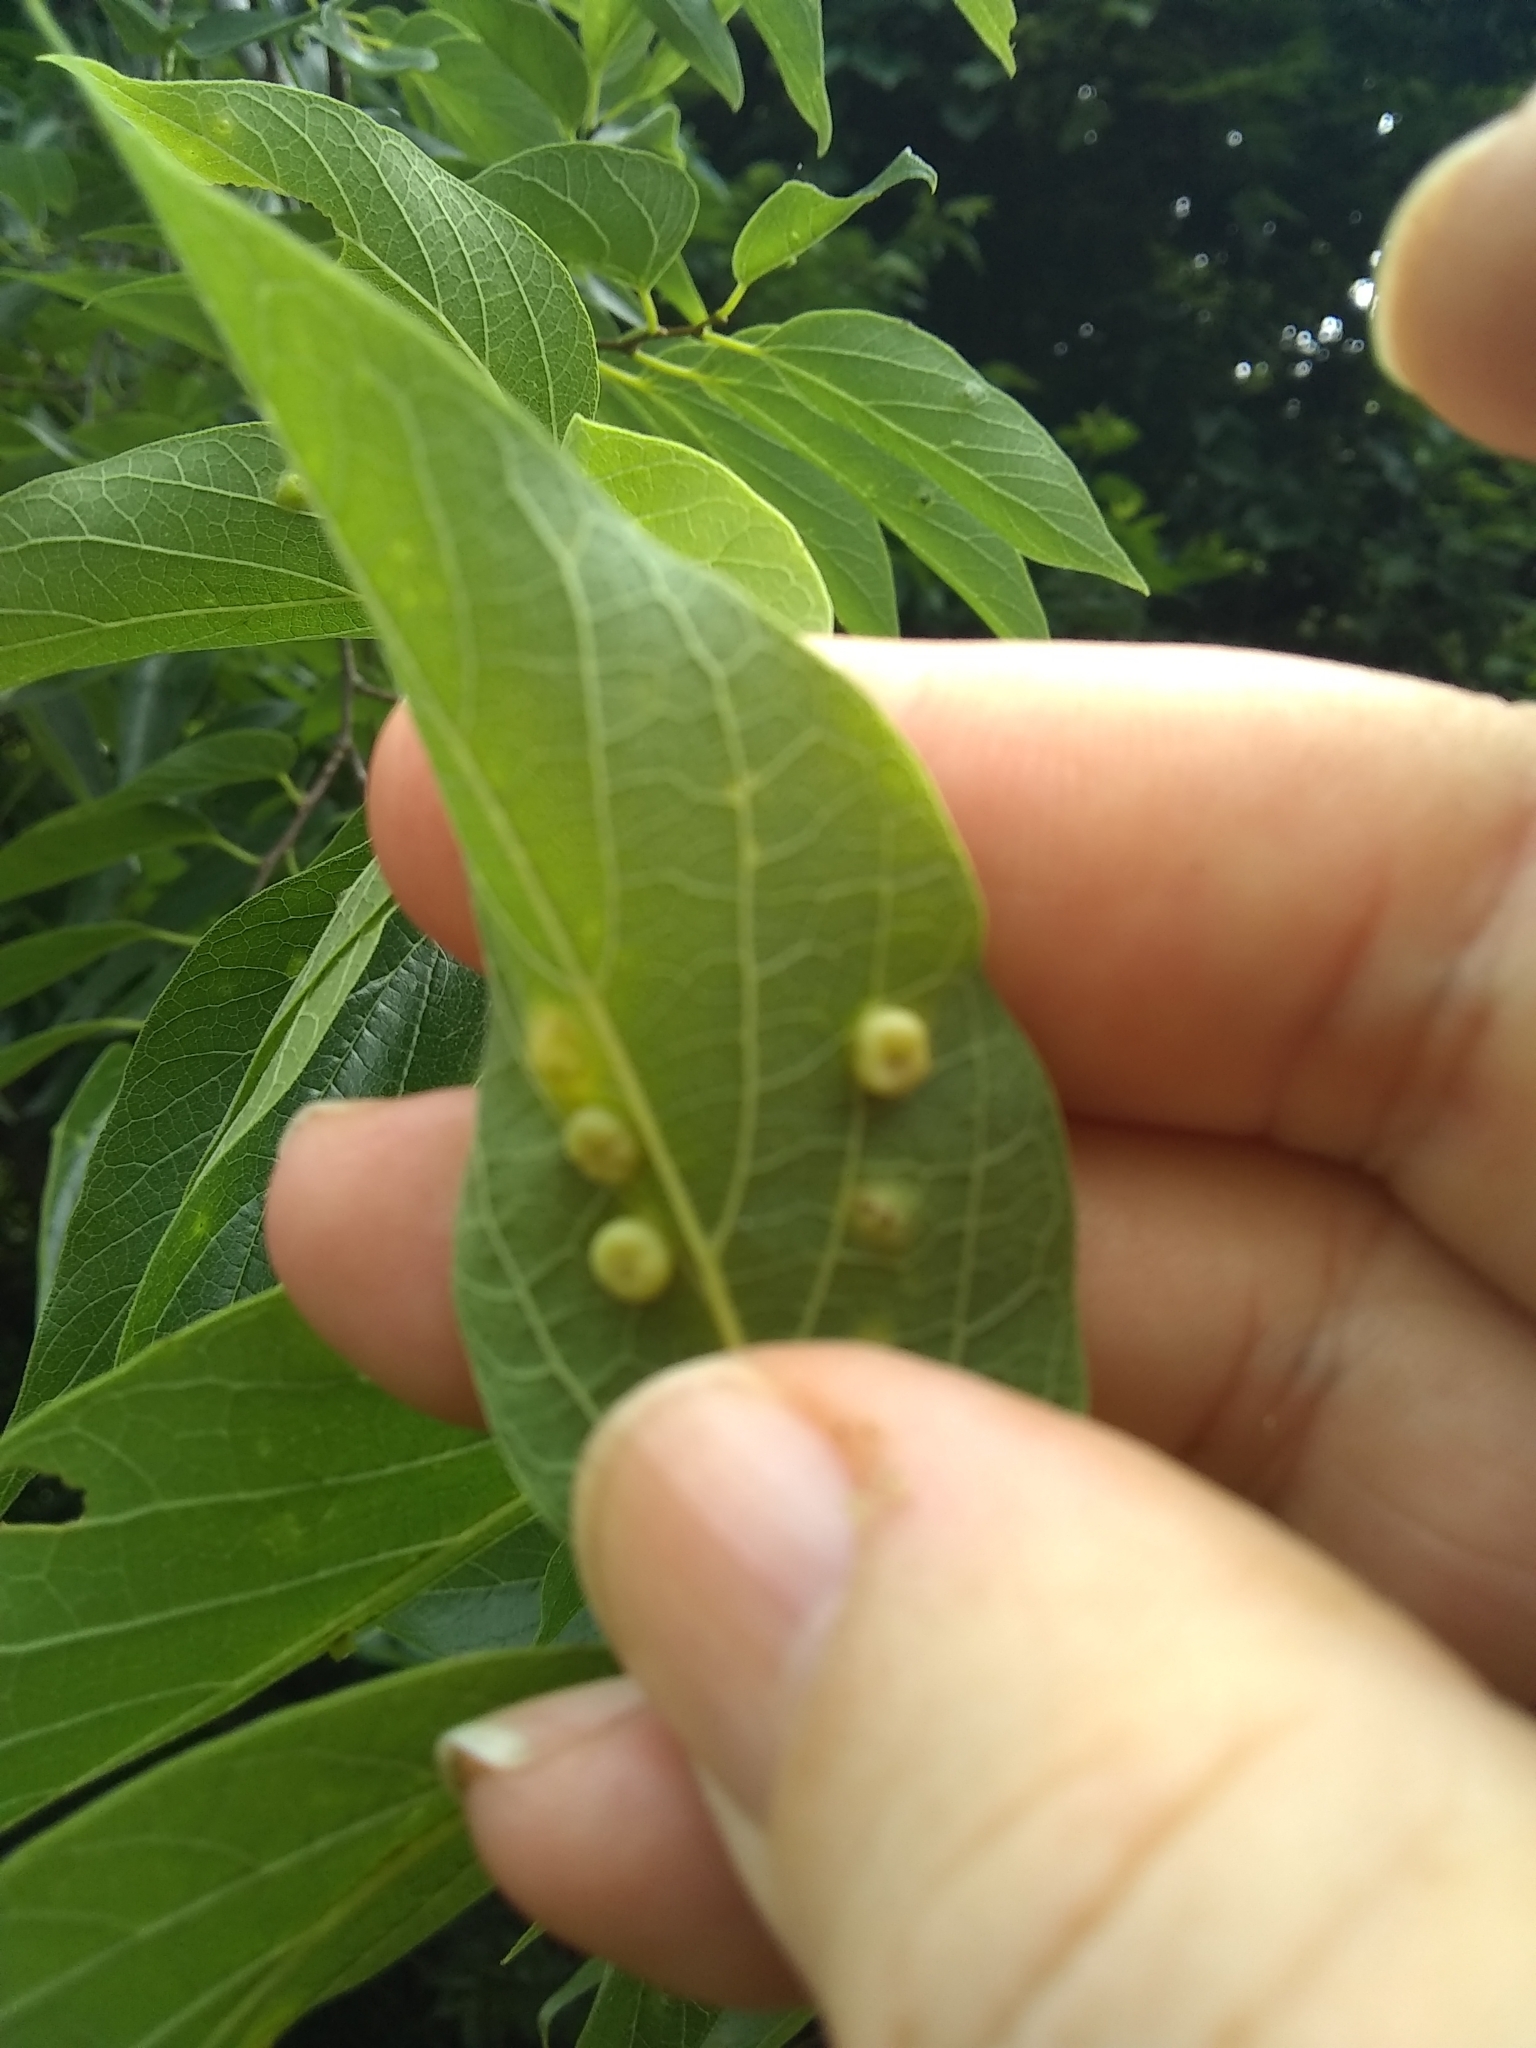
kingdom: Animalia
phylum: Arthropoda
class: Insecta
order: Hemiptera
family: Aphalaridae
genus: Pachypsylla
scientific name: Pachypsylla celtidismamma
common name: Hackberry nipplegall psyllid
